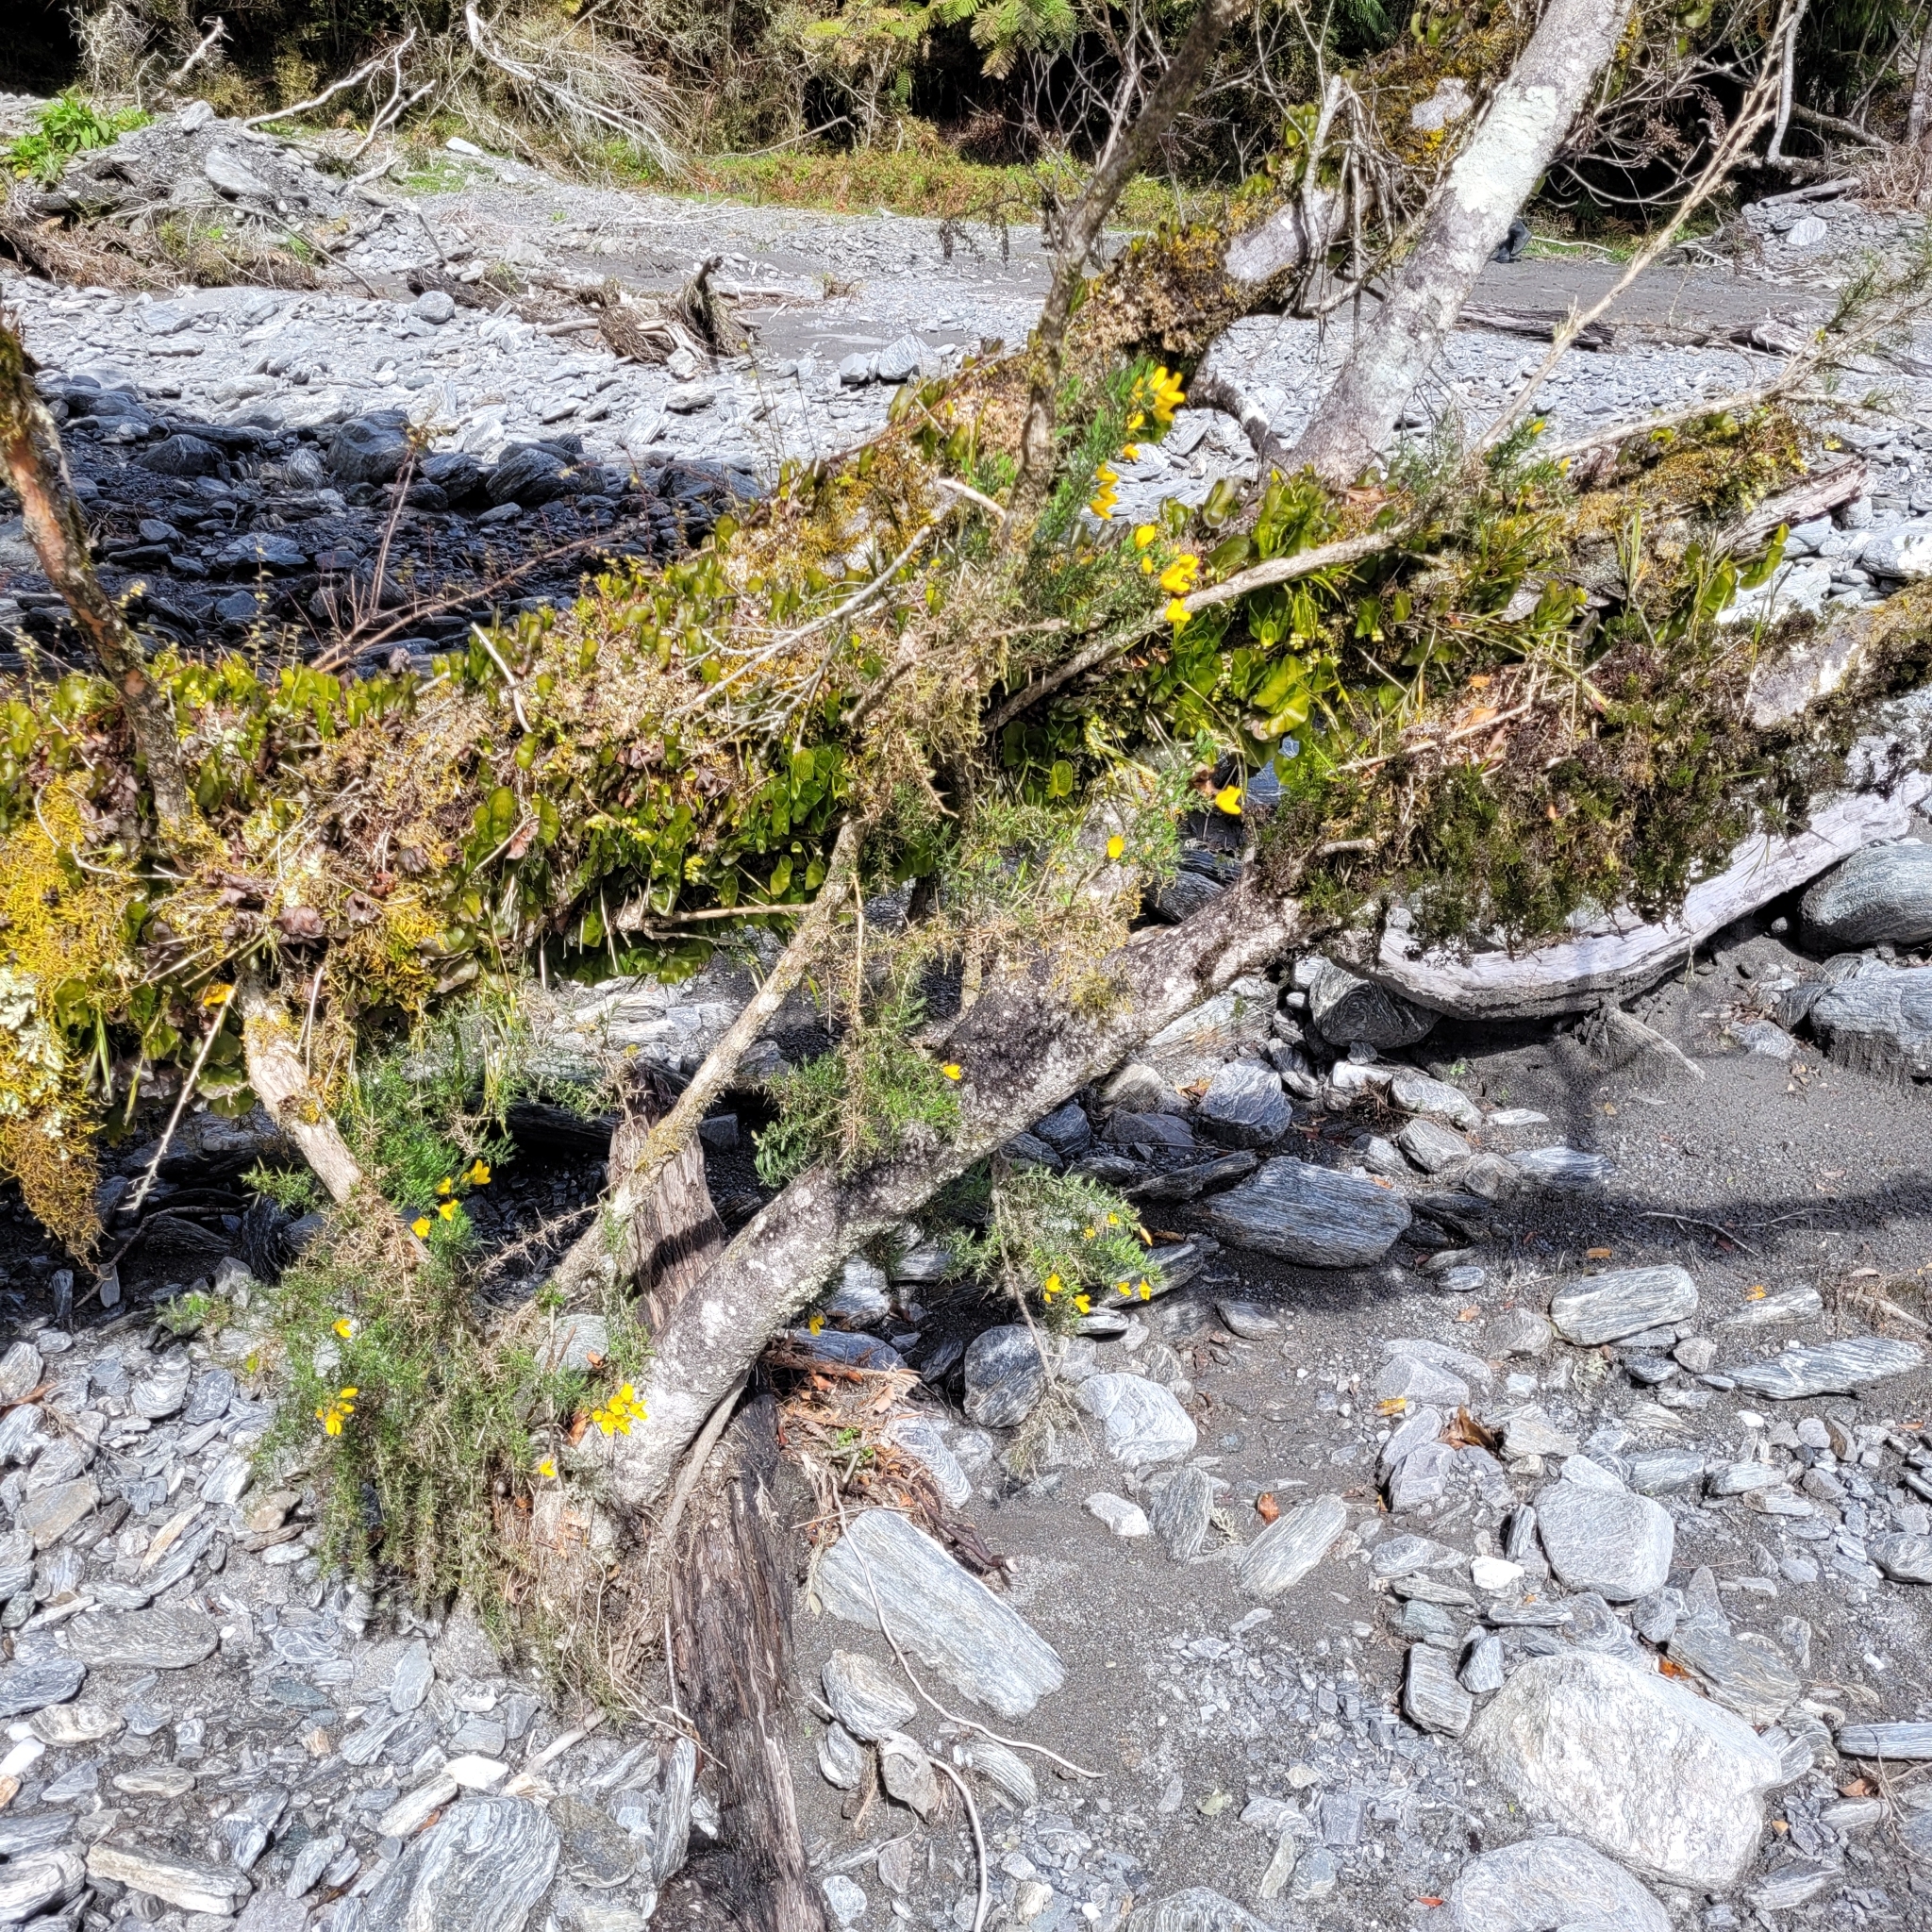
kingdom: Plantae
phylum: Tracheophyta
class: Magnoliopsida
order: Fabales
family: Fabaceae
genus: Ulex
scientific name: Ulex europaeus
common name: Common gorse
